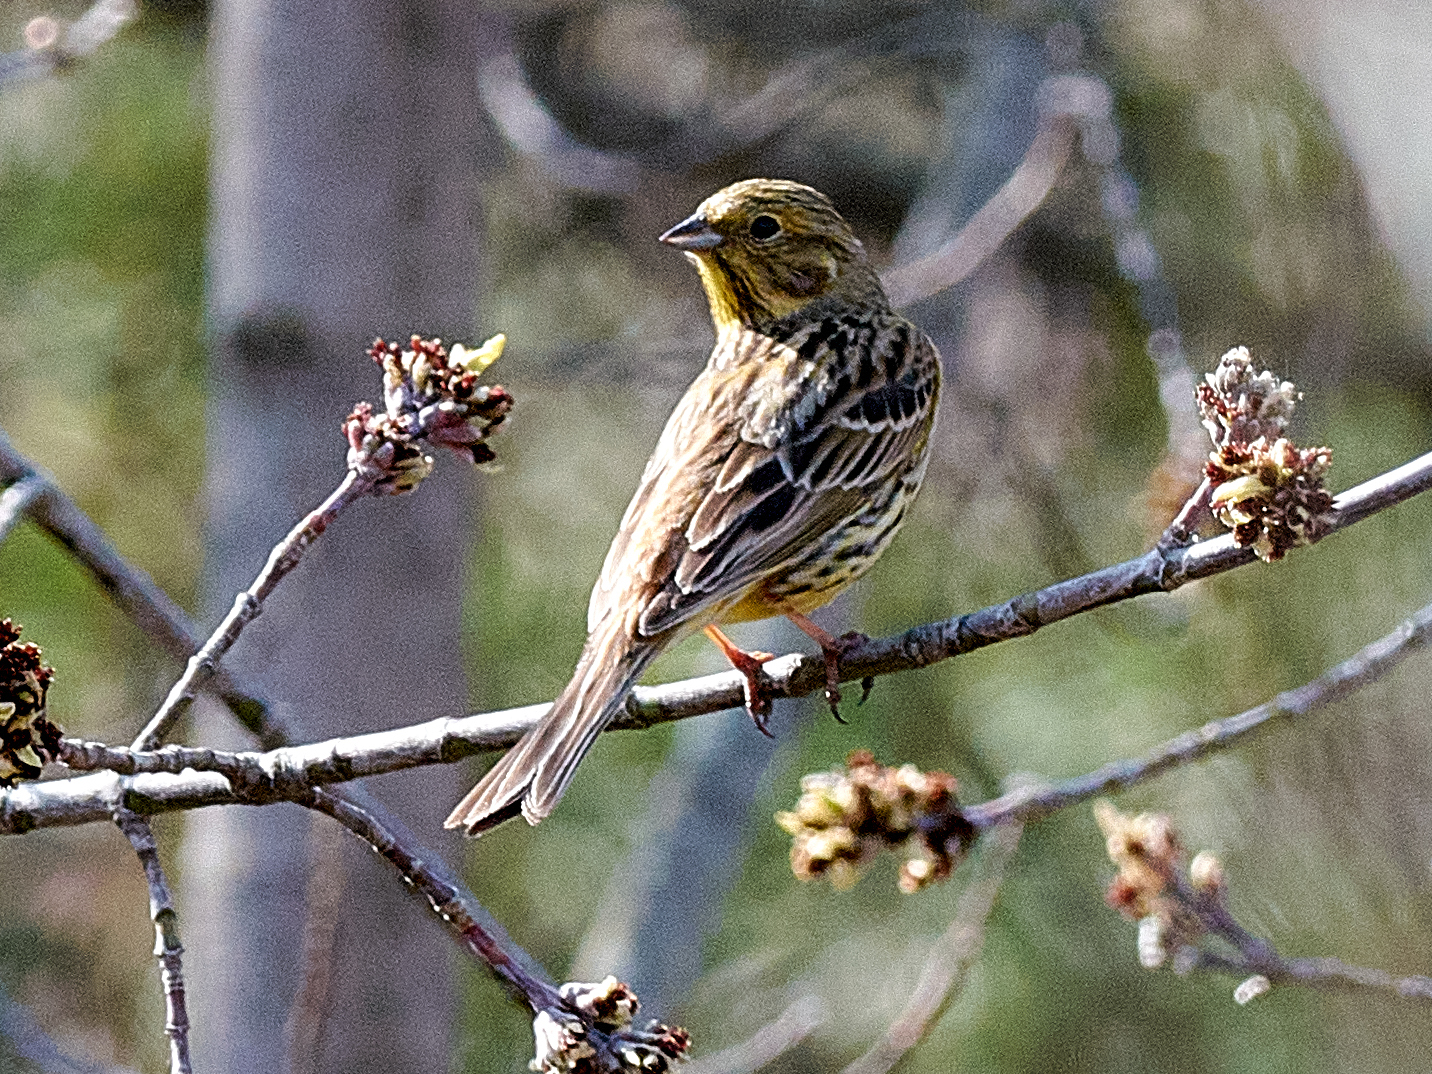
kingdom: Animalia
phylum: Chordata
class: Aves
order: Passeriformes
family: Emberizidae
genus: Emberiza
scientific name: Emberiza citrinella
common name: Yellowhammer
